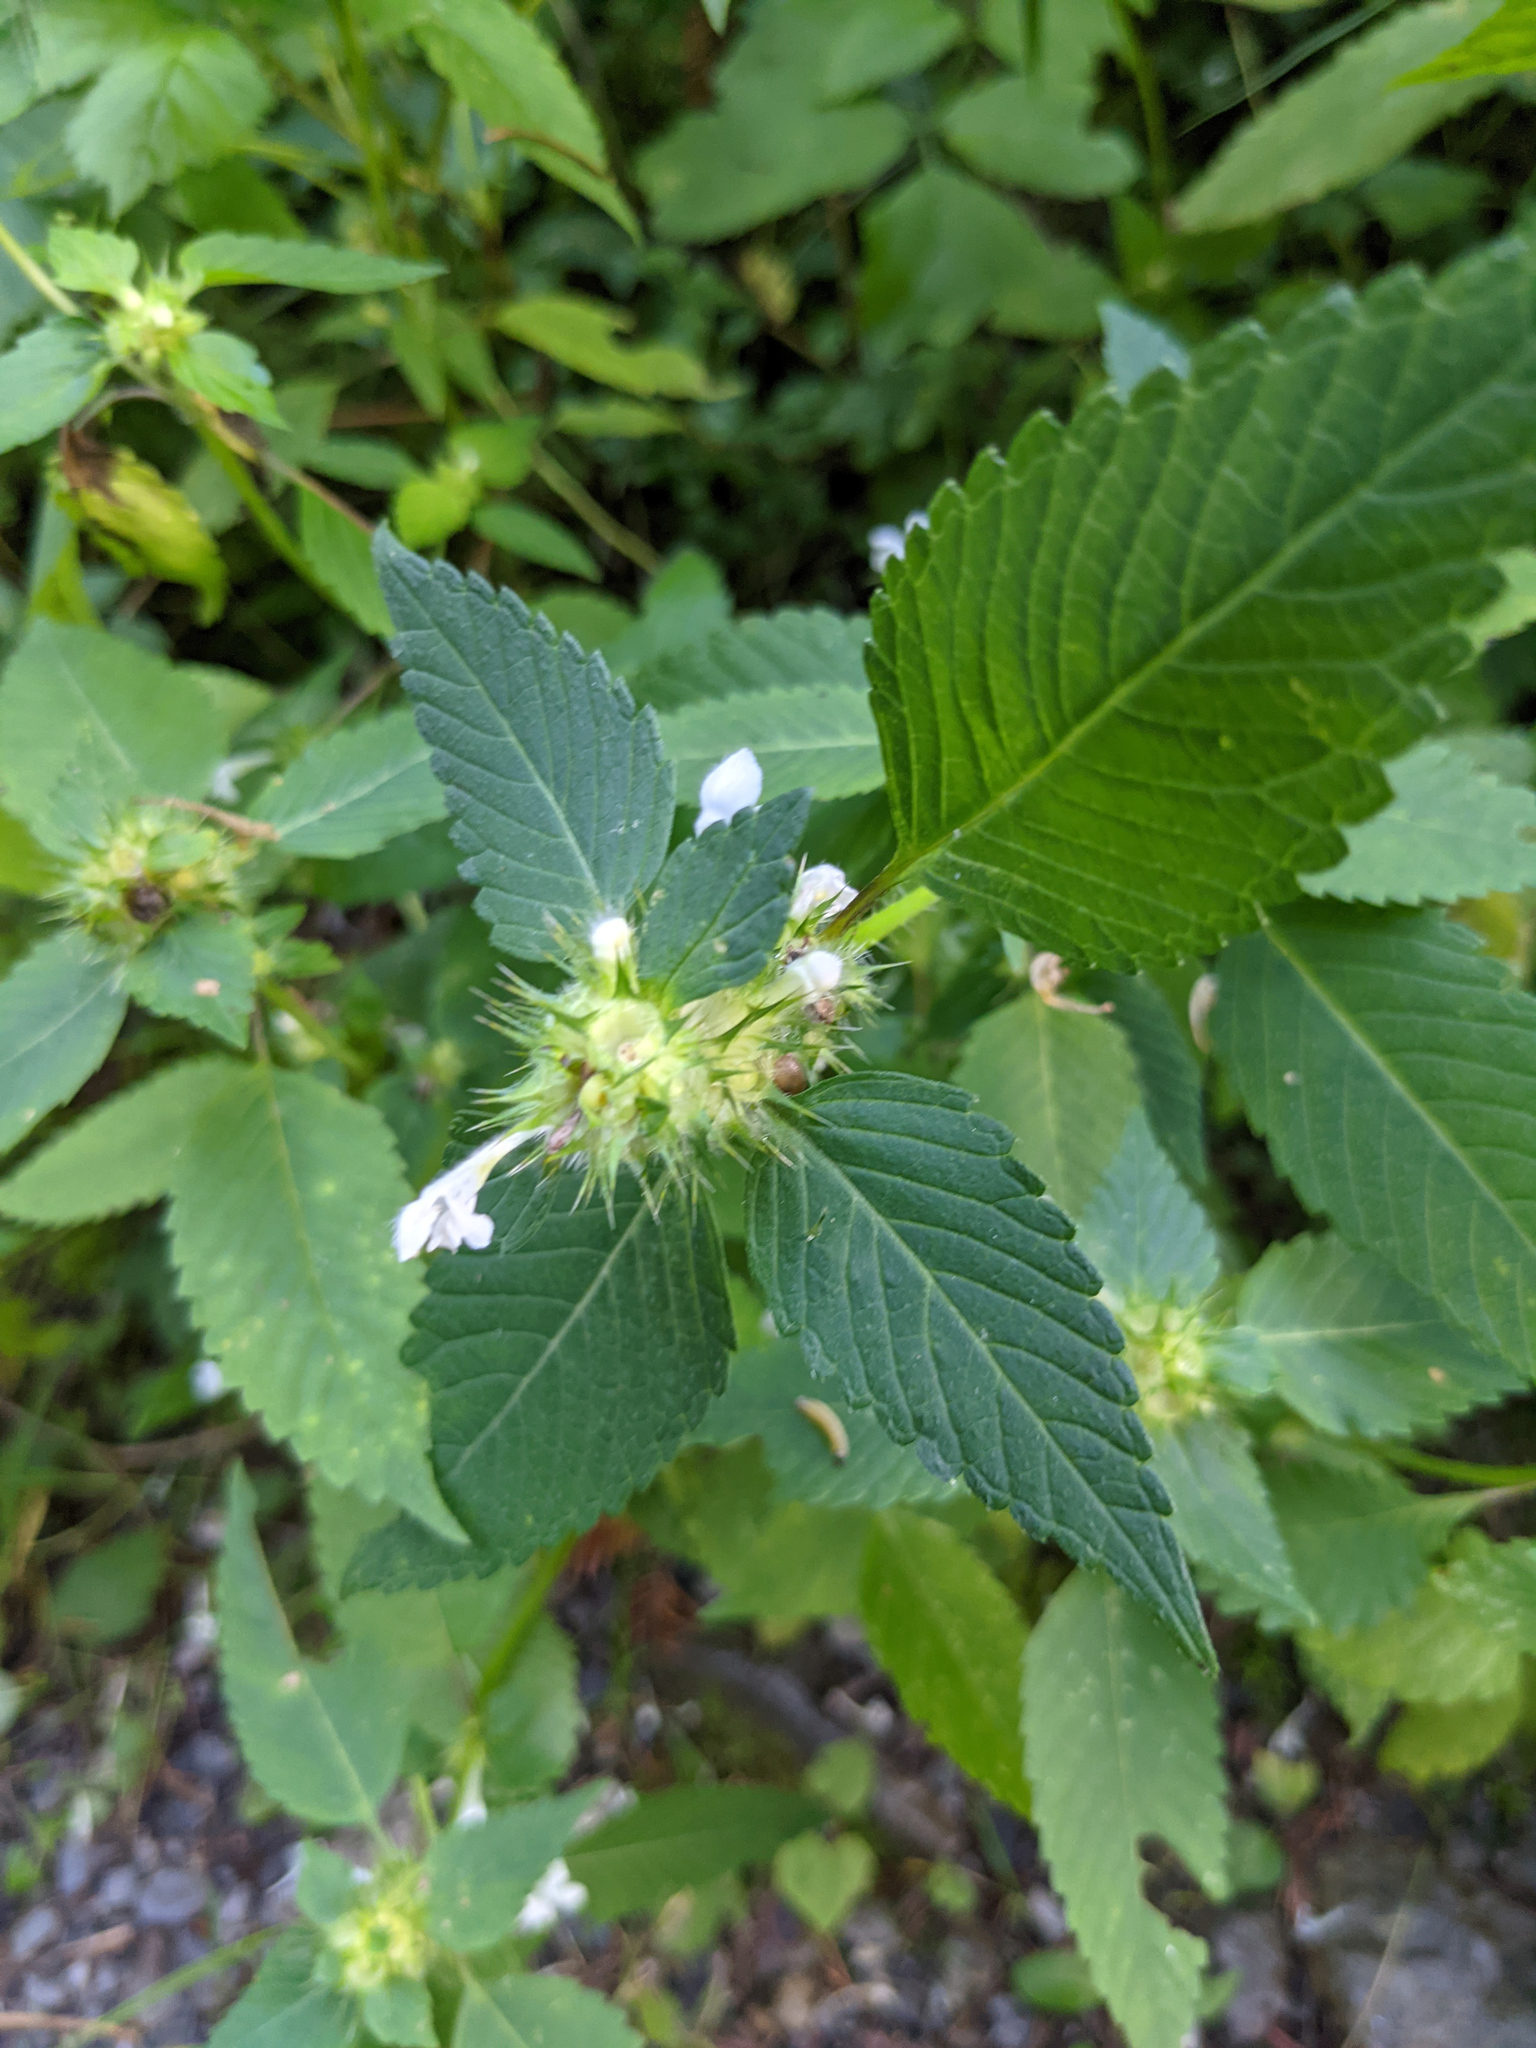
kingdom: Plantae
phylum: Tracheophyta
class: Magnoliopsida
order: Lamiales
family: Lamiaceae
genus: Galeopsis
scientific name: Galeopsis tetrahit
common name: Common hemp-nettle
